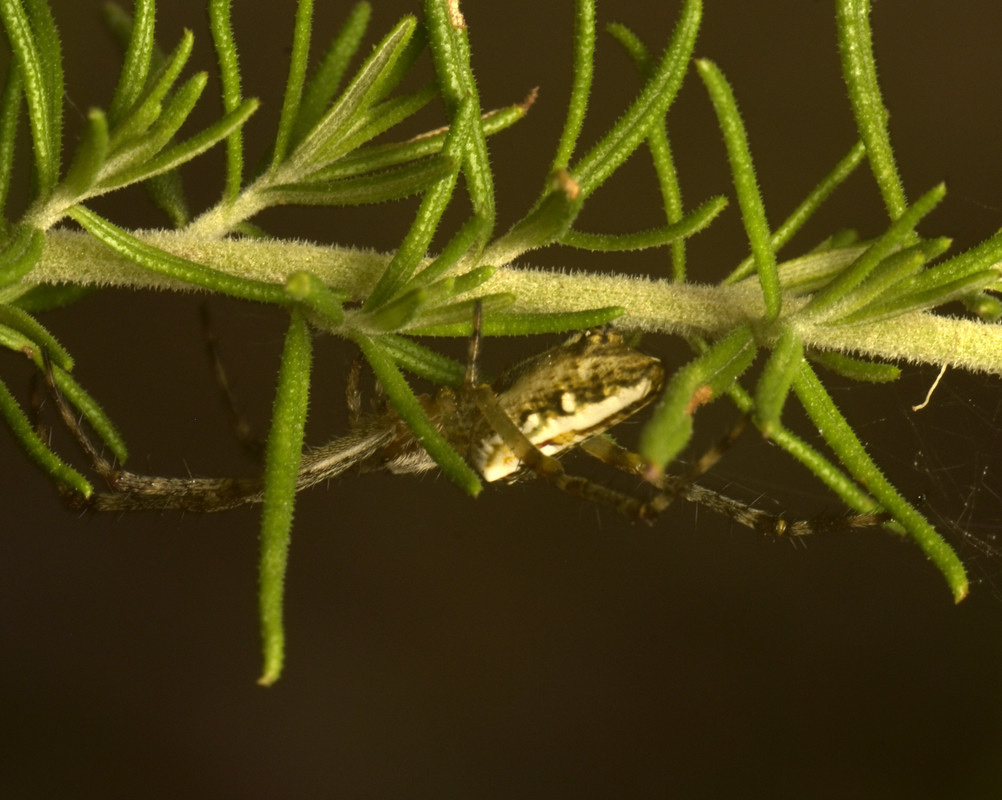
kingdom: Animalia
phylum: Arthropoda
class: Arachnida
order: Araneae
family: Araneidae
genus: Plebs
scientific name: Plebs bradleyi
